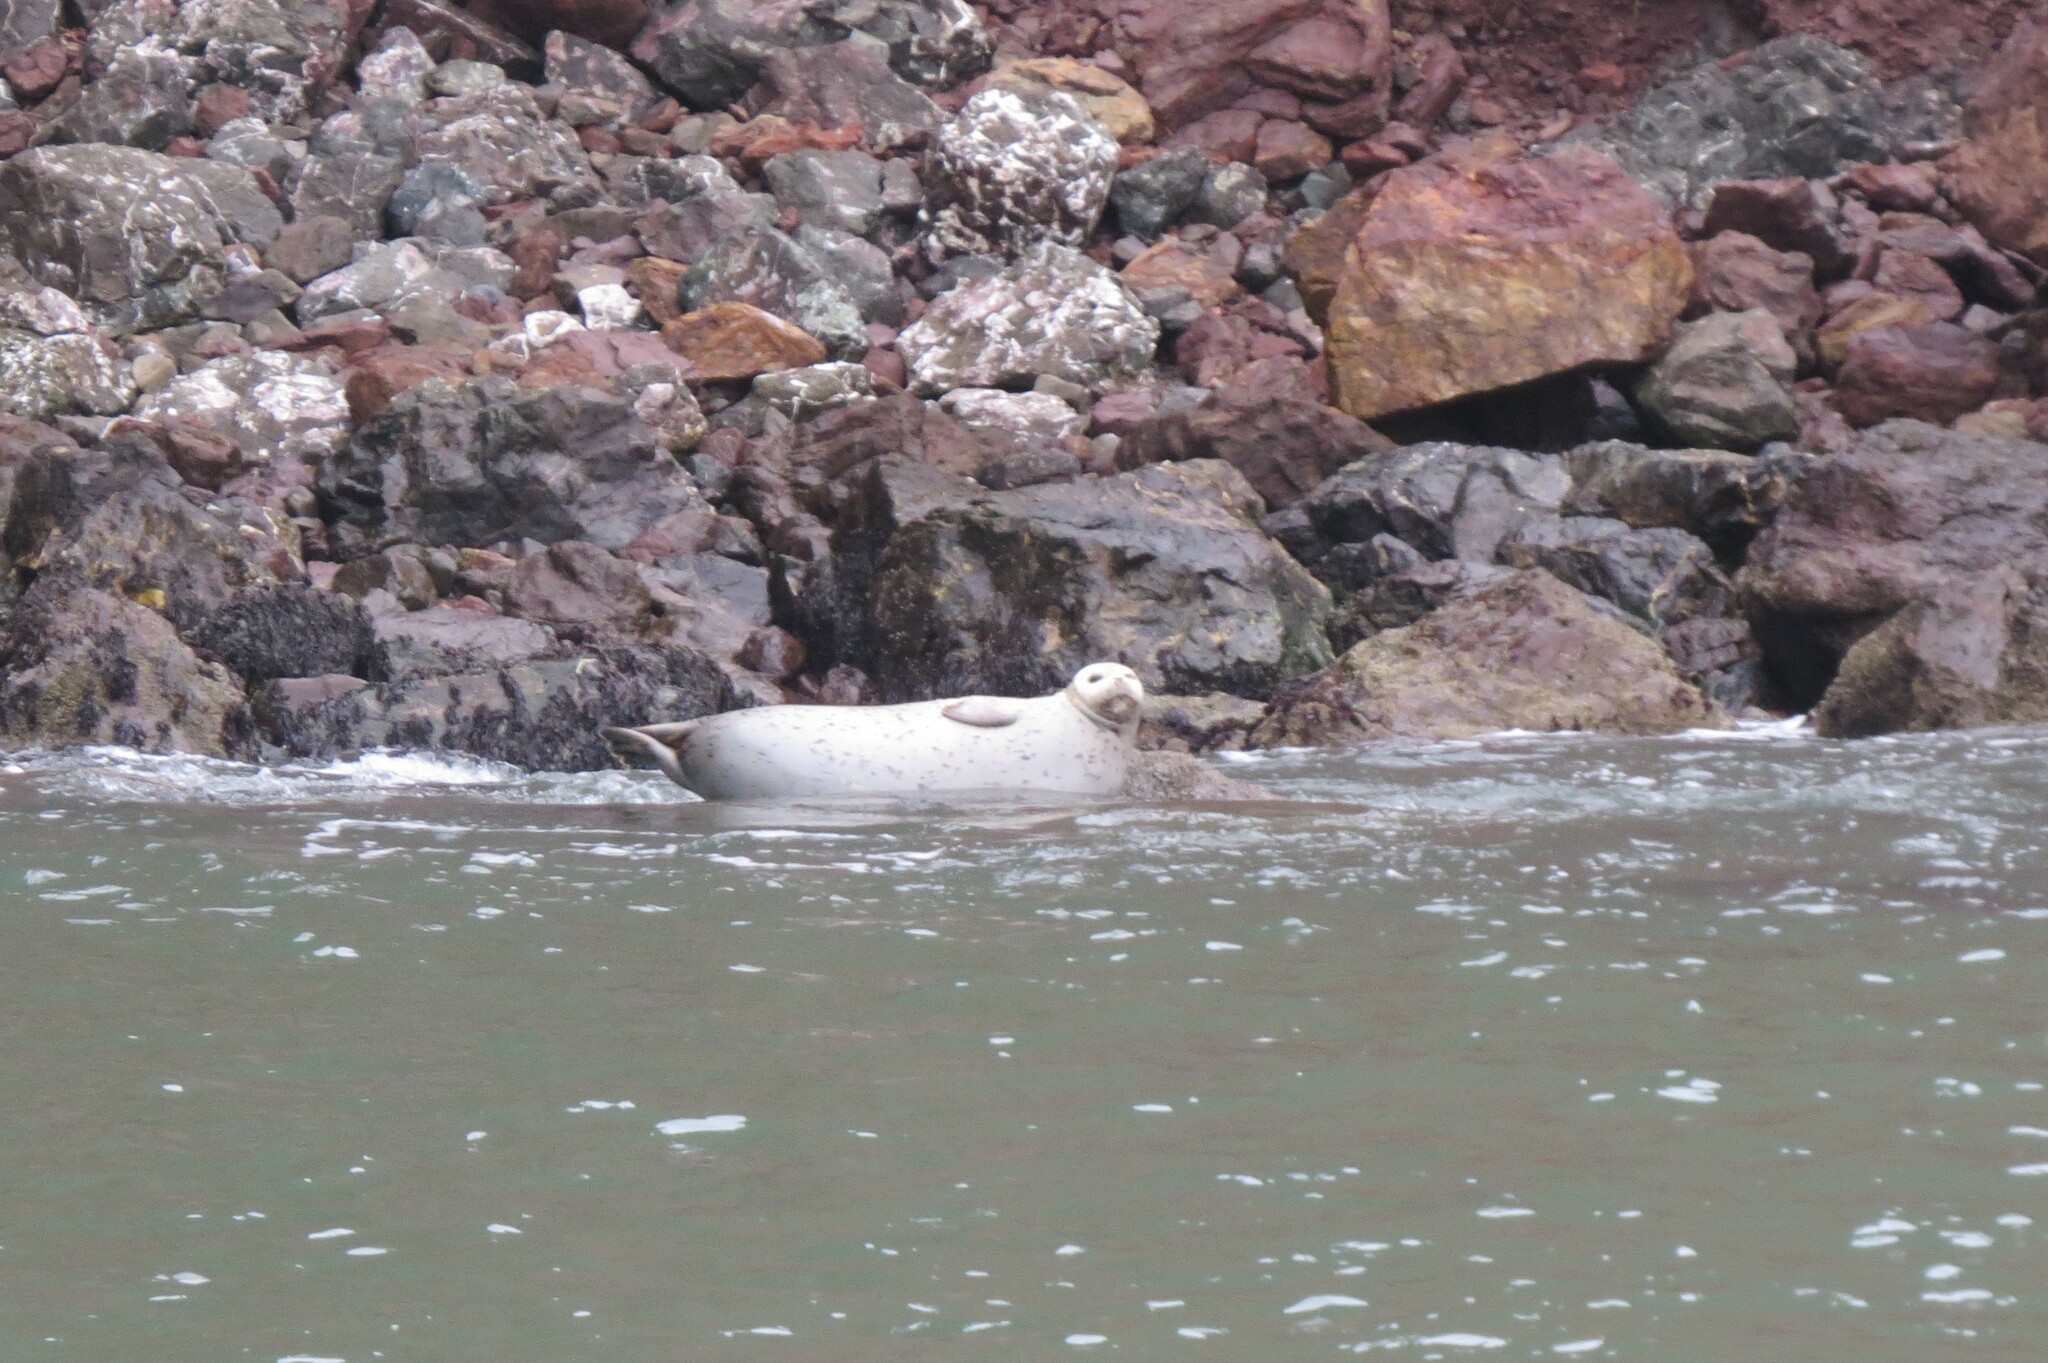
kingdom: Animalia
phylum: Chordata
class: Mammalia
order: Carnivora
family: Phocidae
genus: Phoca
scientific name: Phoca vitulina
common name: Harbor seal
